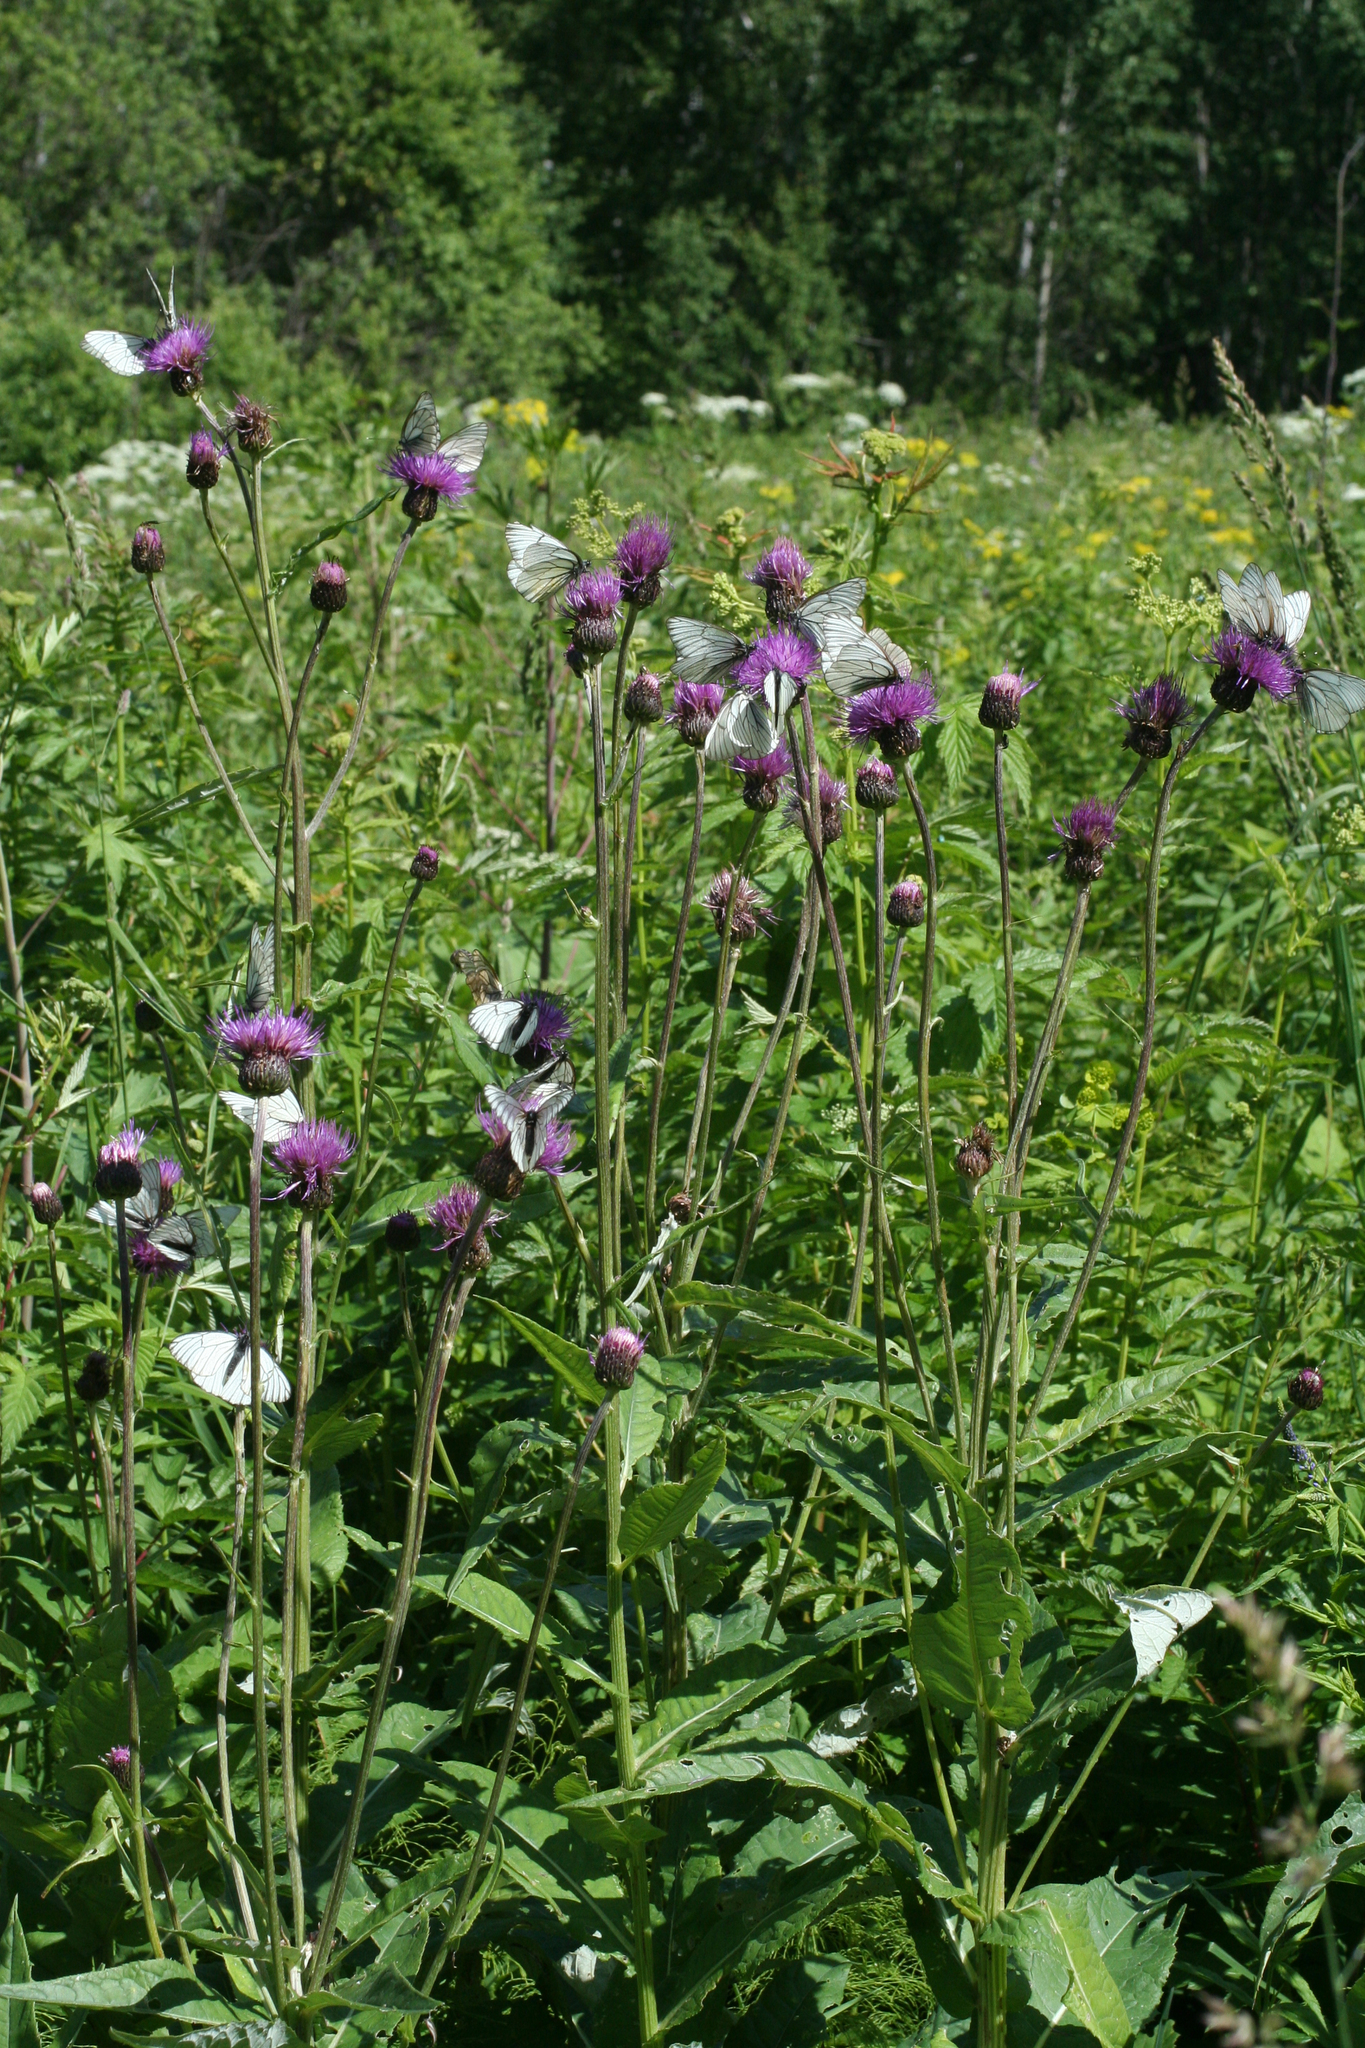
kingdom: Plantae
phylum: Tracheophyta
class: Magnoliopsida
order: Asterales
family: Asteraceae
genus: Cirsium
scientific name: Cirsium heterophyllum
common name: Melancholy thistle
